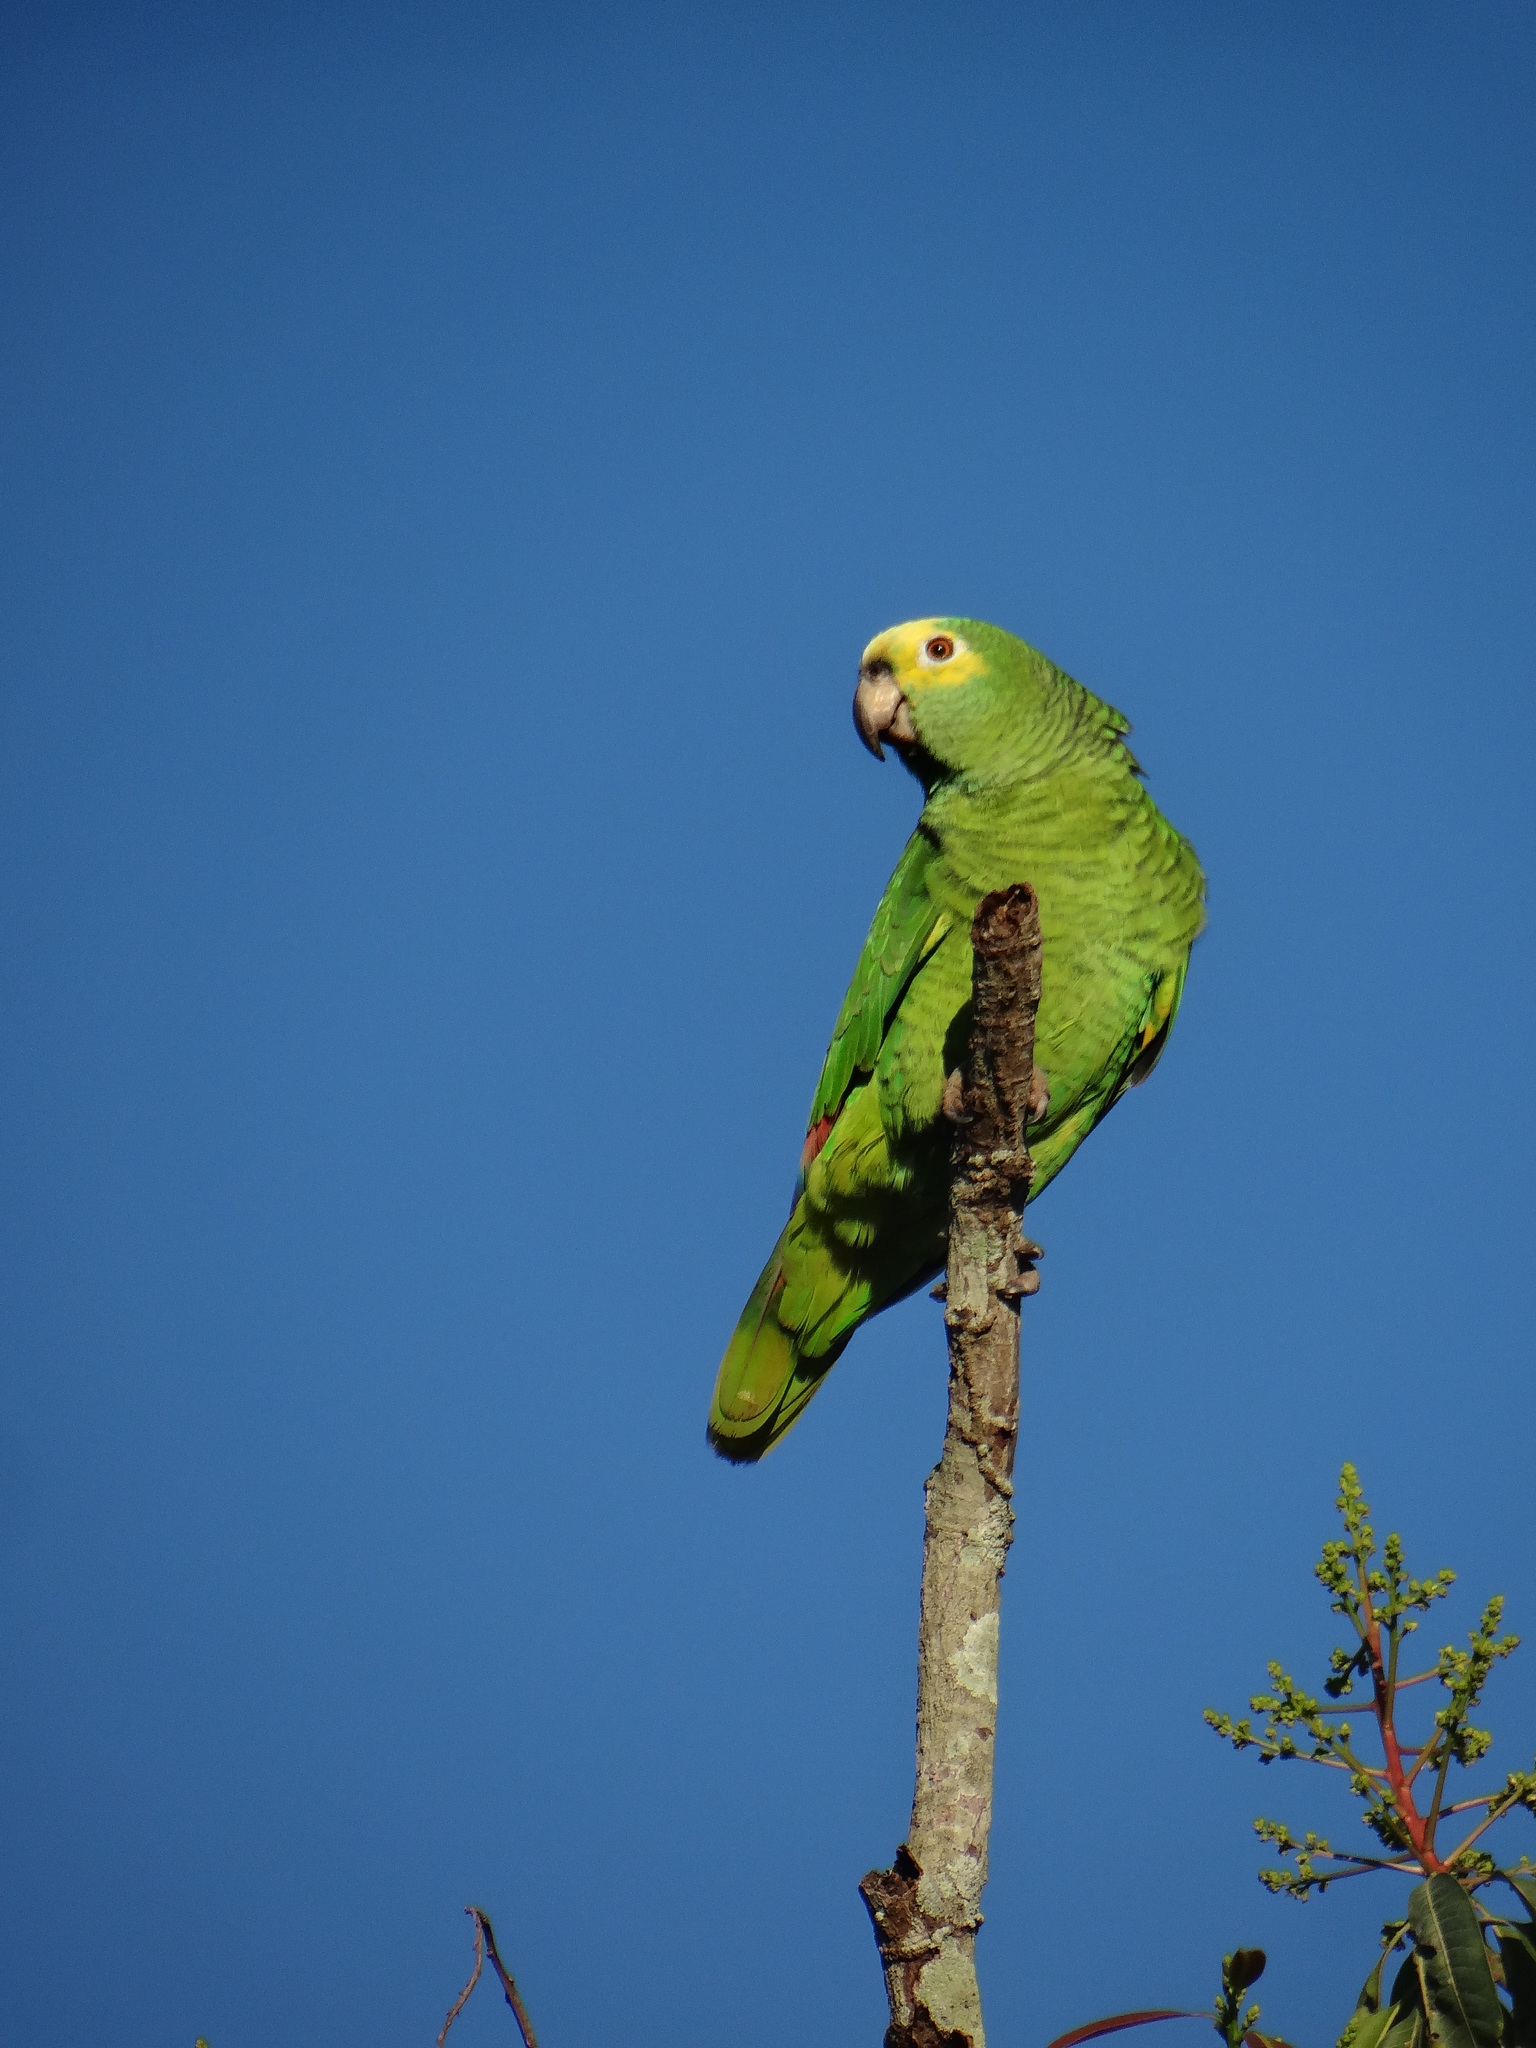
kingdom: Animalia
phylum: Chordata
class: Aves
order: Psittaciformes
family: Psittacidae
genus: Amazona
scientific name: Amazona aestiva
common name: Turquoise-fronted amazon
